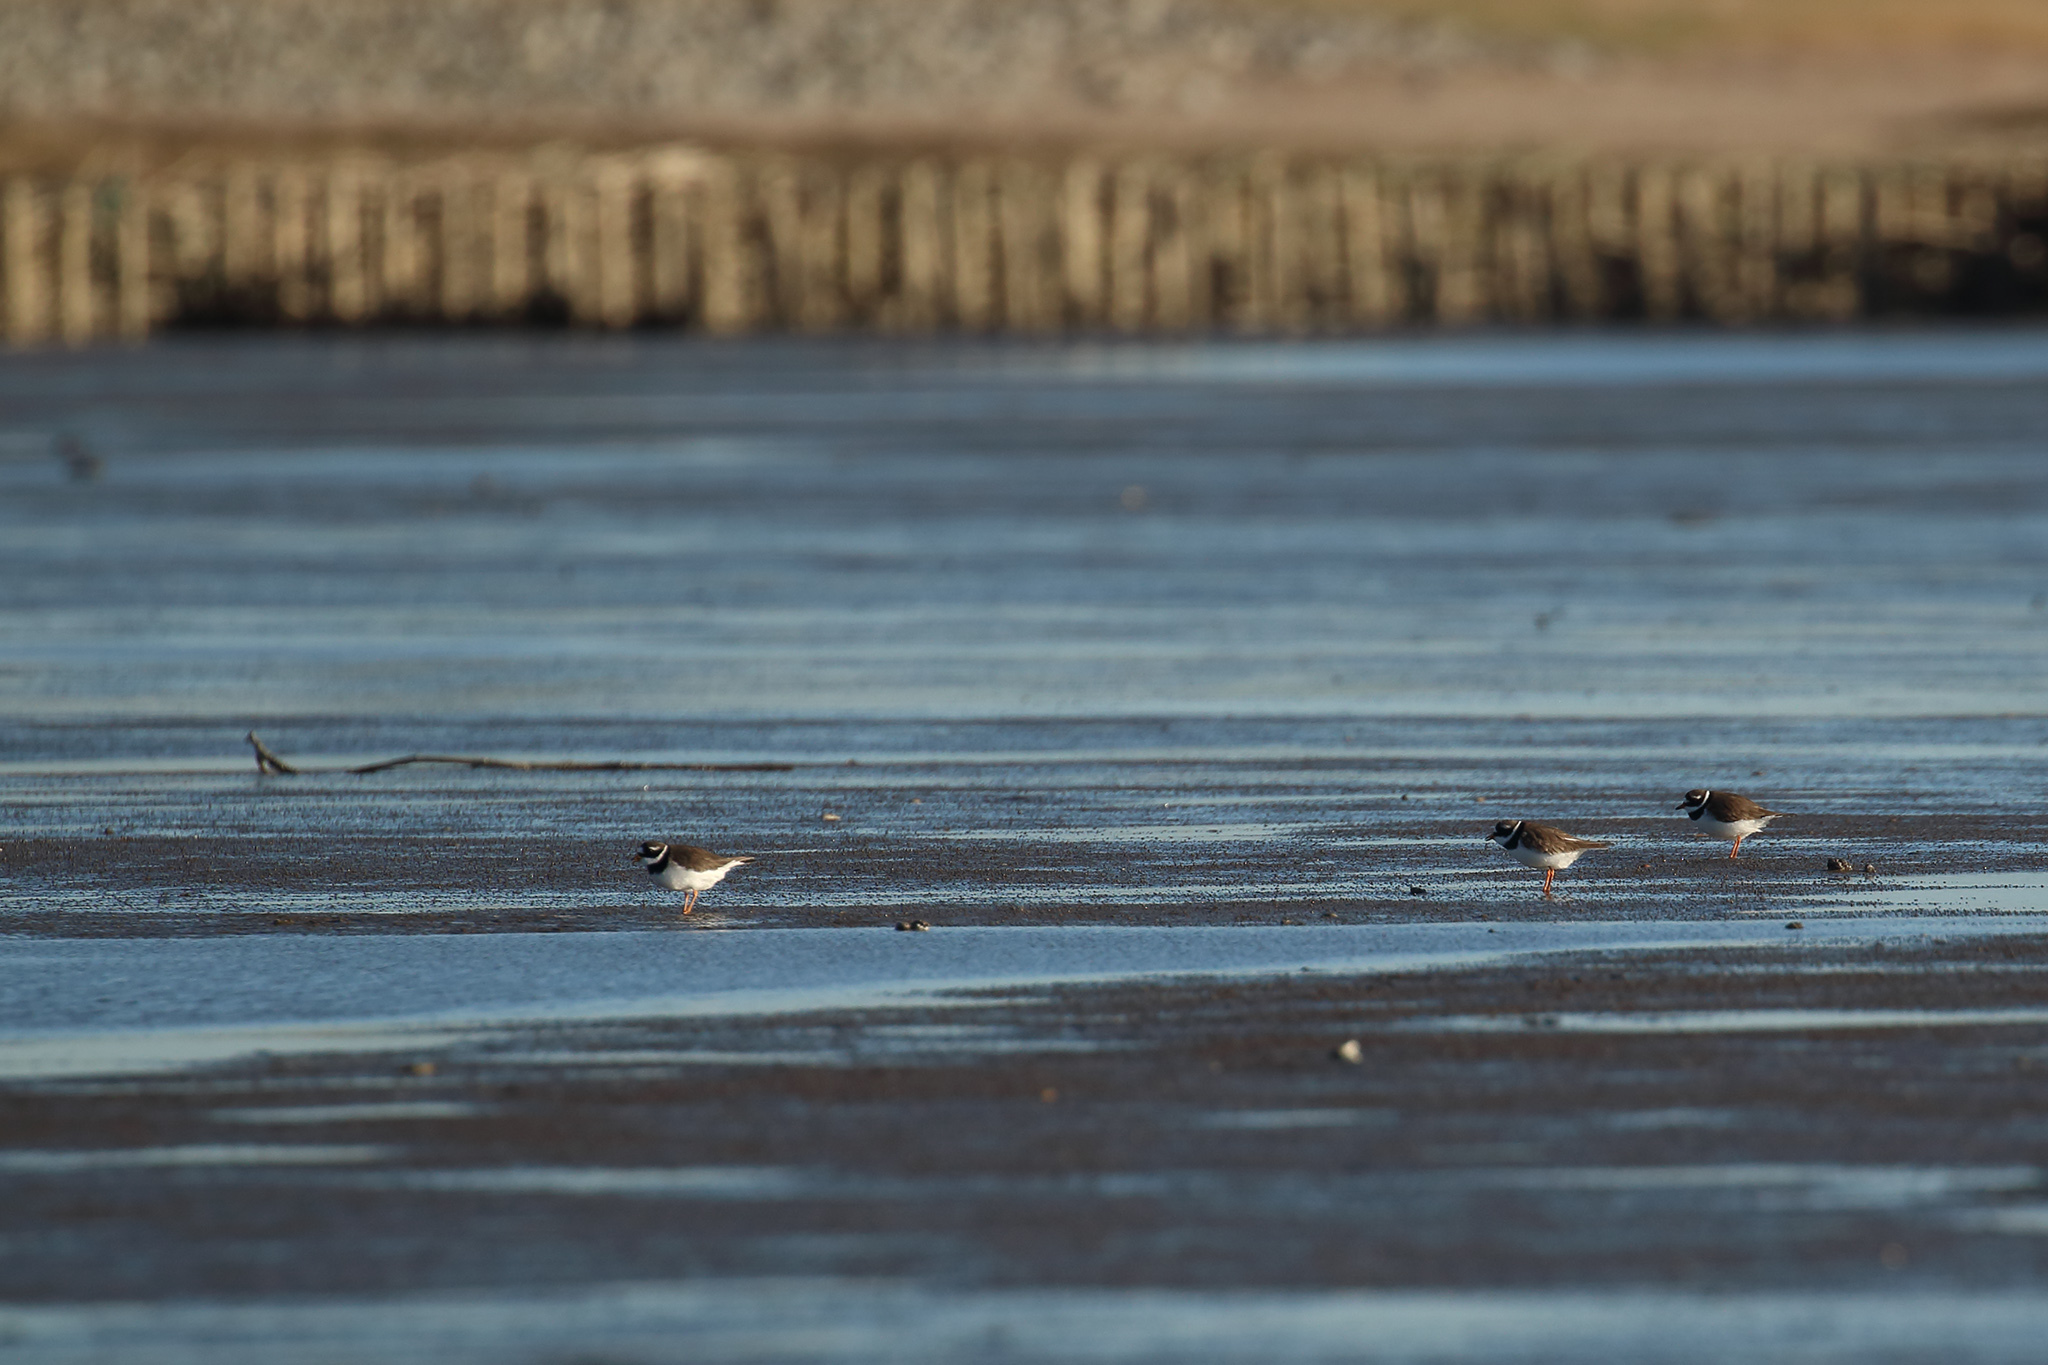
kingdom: Animalia
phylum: Chordata
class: Aves
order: Charadriiformes
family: Charadriidae
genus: Charadrius
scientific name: Charadrius hiaticula
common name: Common ringed plover
